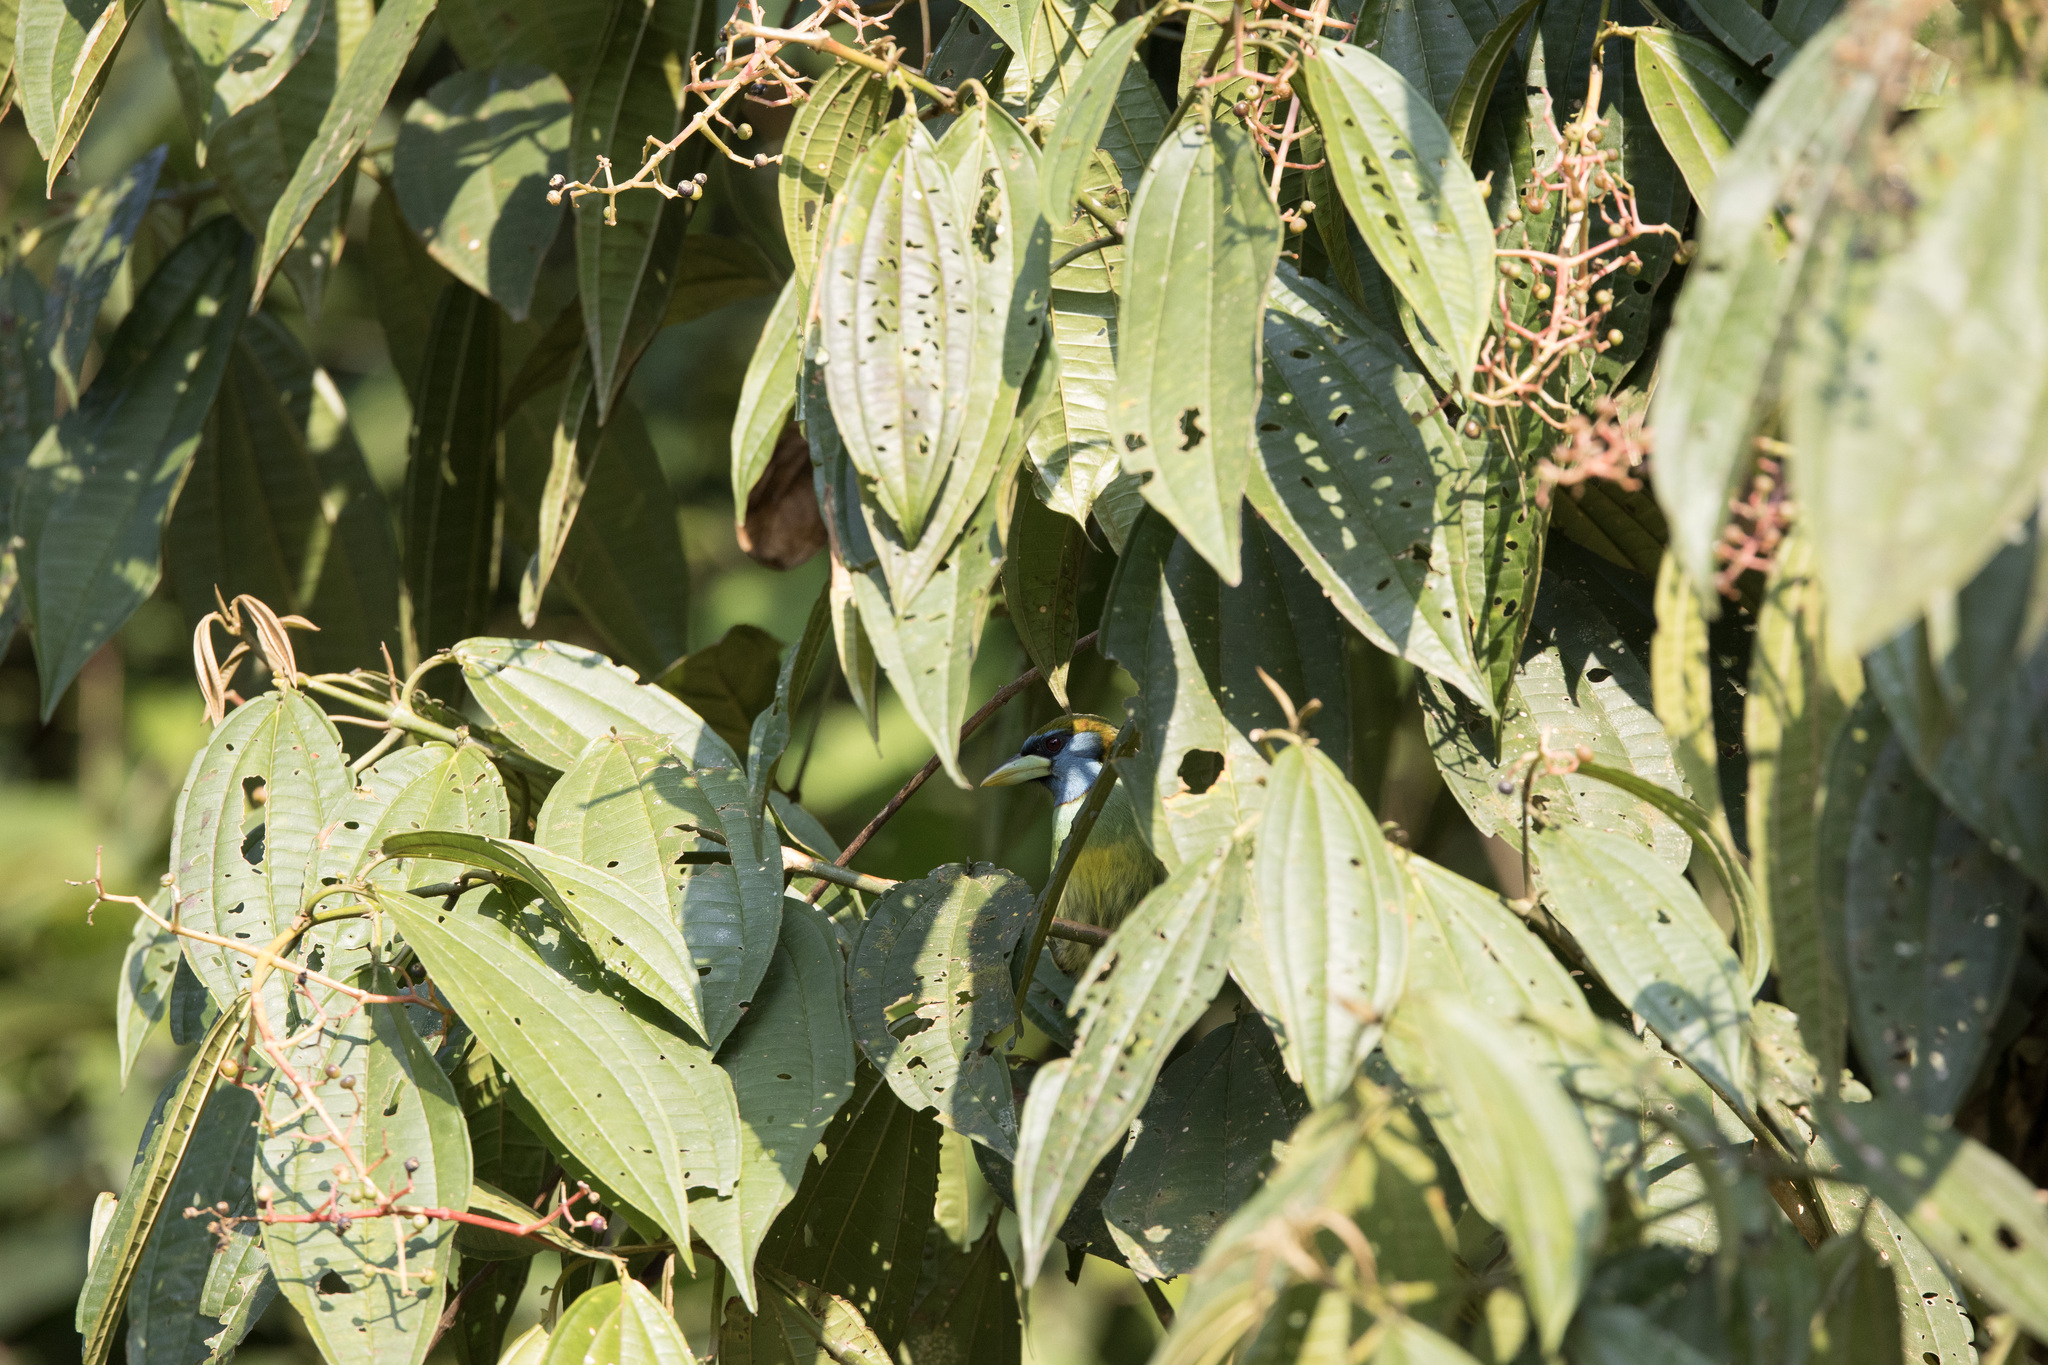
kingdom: Animalia
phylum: Chordata
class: Aves
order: Piciformes
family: Capitonidae
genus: Eubucco
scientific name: Eubucco versicolor
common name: Versicolored barbet
